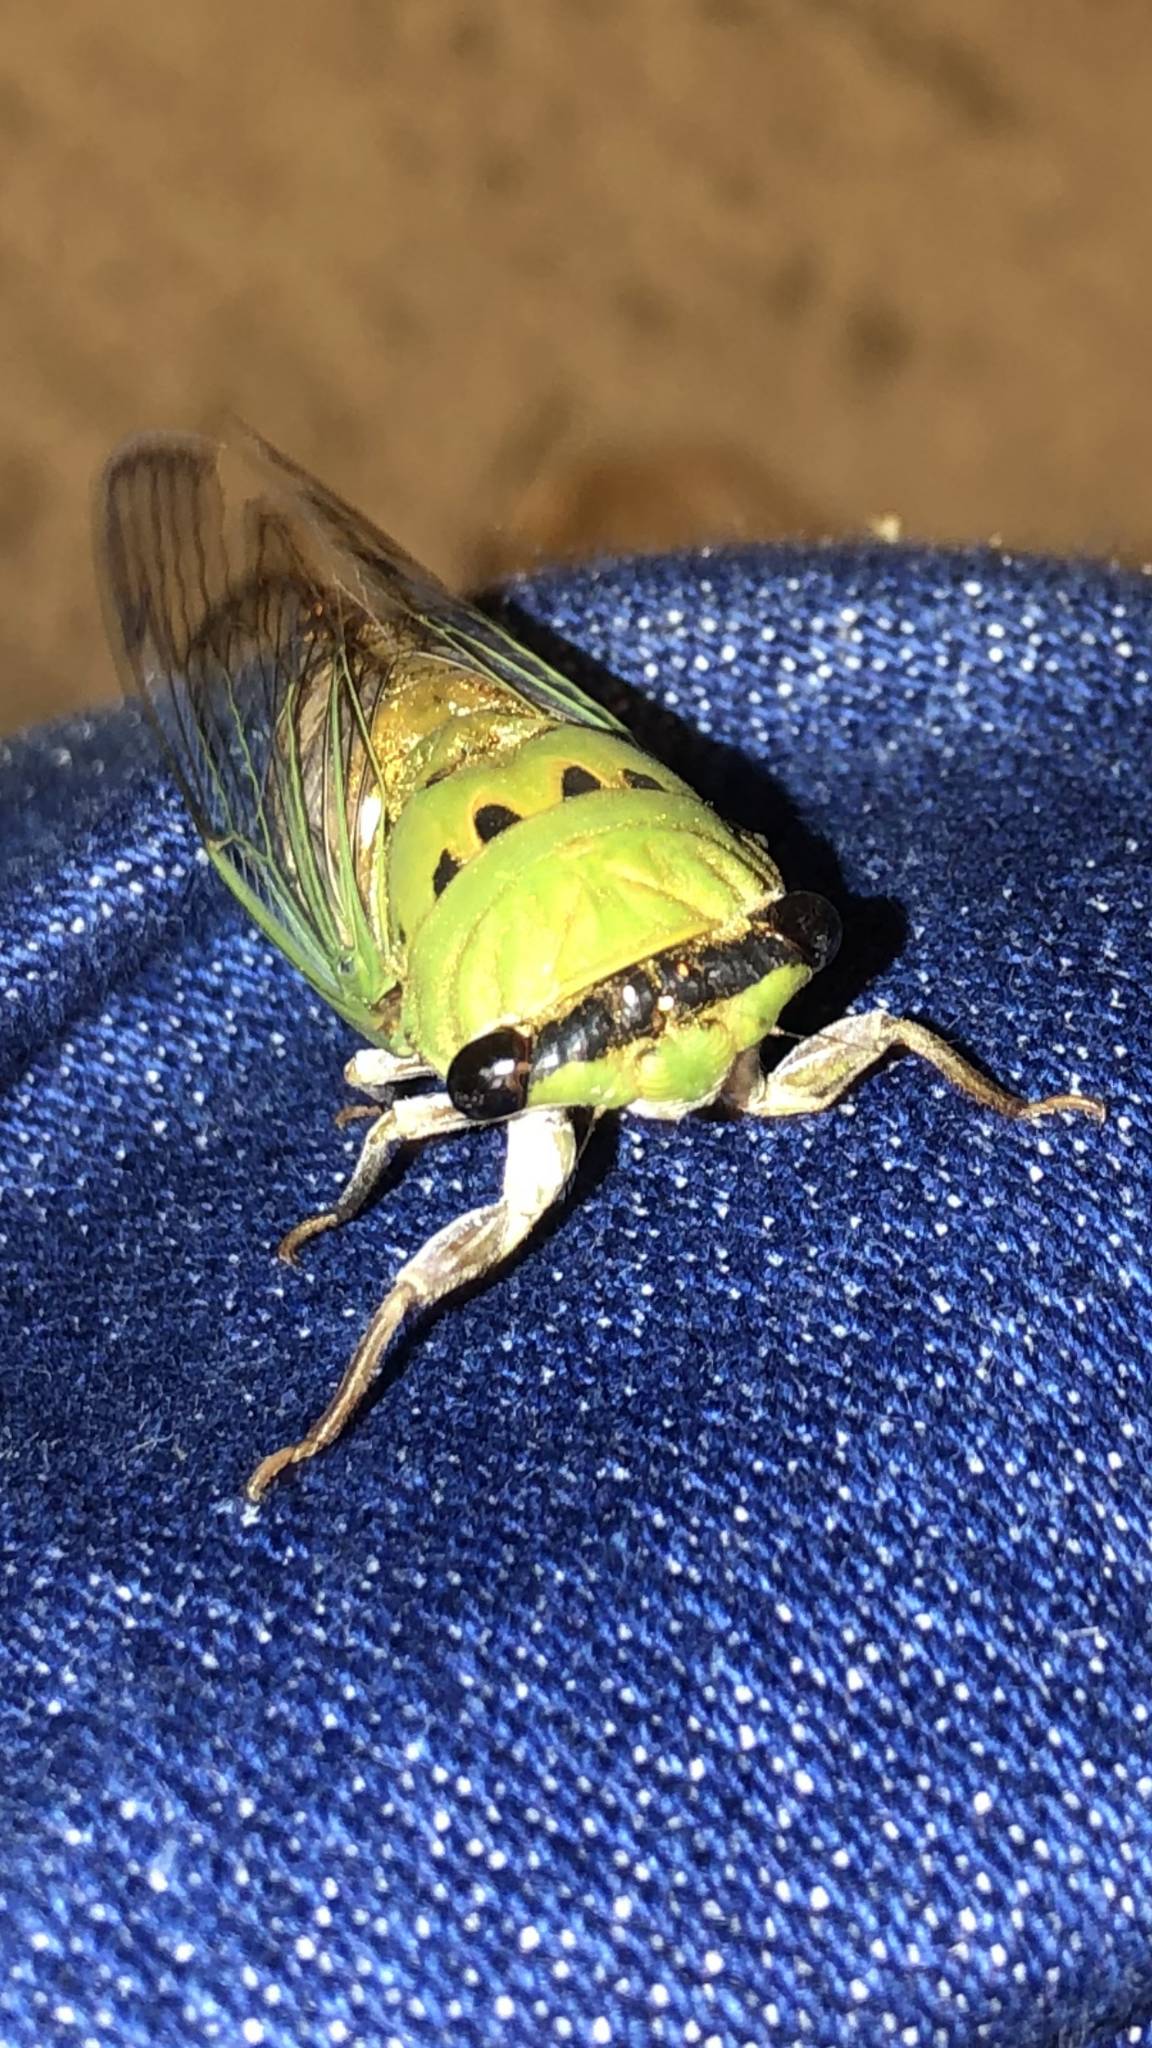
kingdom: Animalia
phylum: Arthropoda
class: Insecta
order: Hemiptera
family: Cicadidae
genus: Neotibicen
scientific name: Neotibicen superbus
